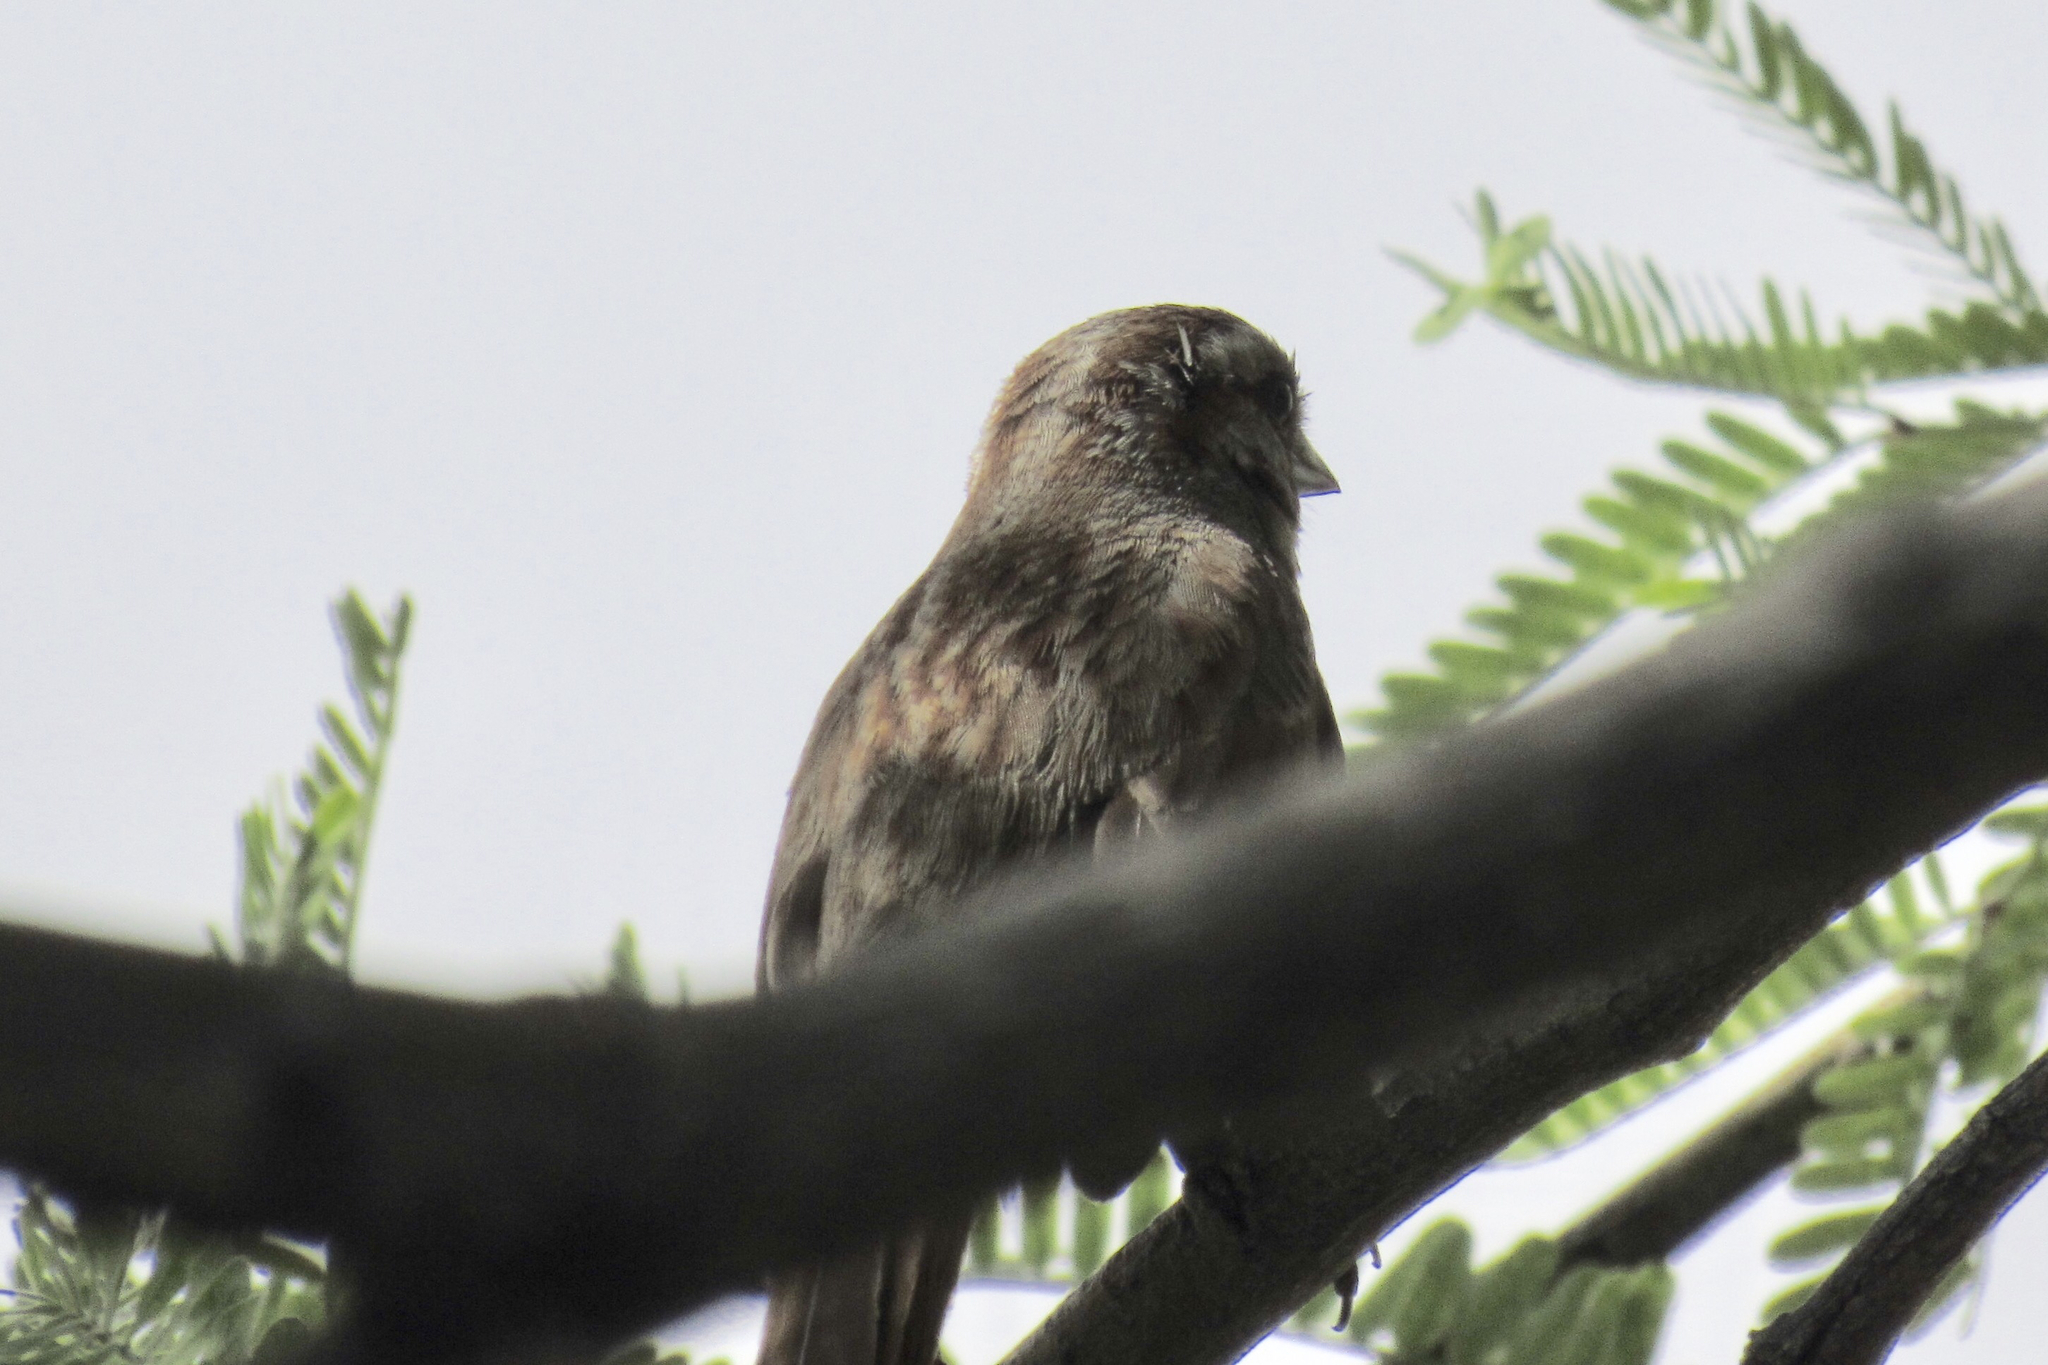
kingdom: Animalia
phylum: Chordata
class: Aves
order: Passeriformes
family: Passerellidae
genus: Melospiza
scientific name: Melospiza melodia
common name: Song sparrow
